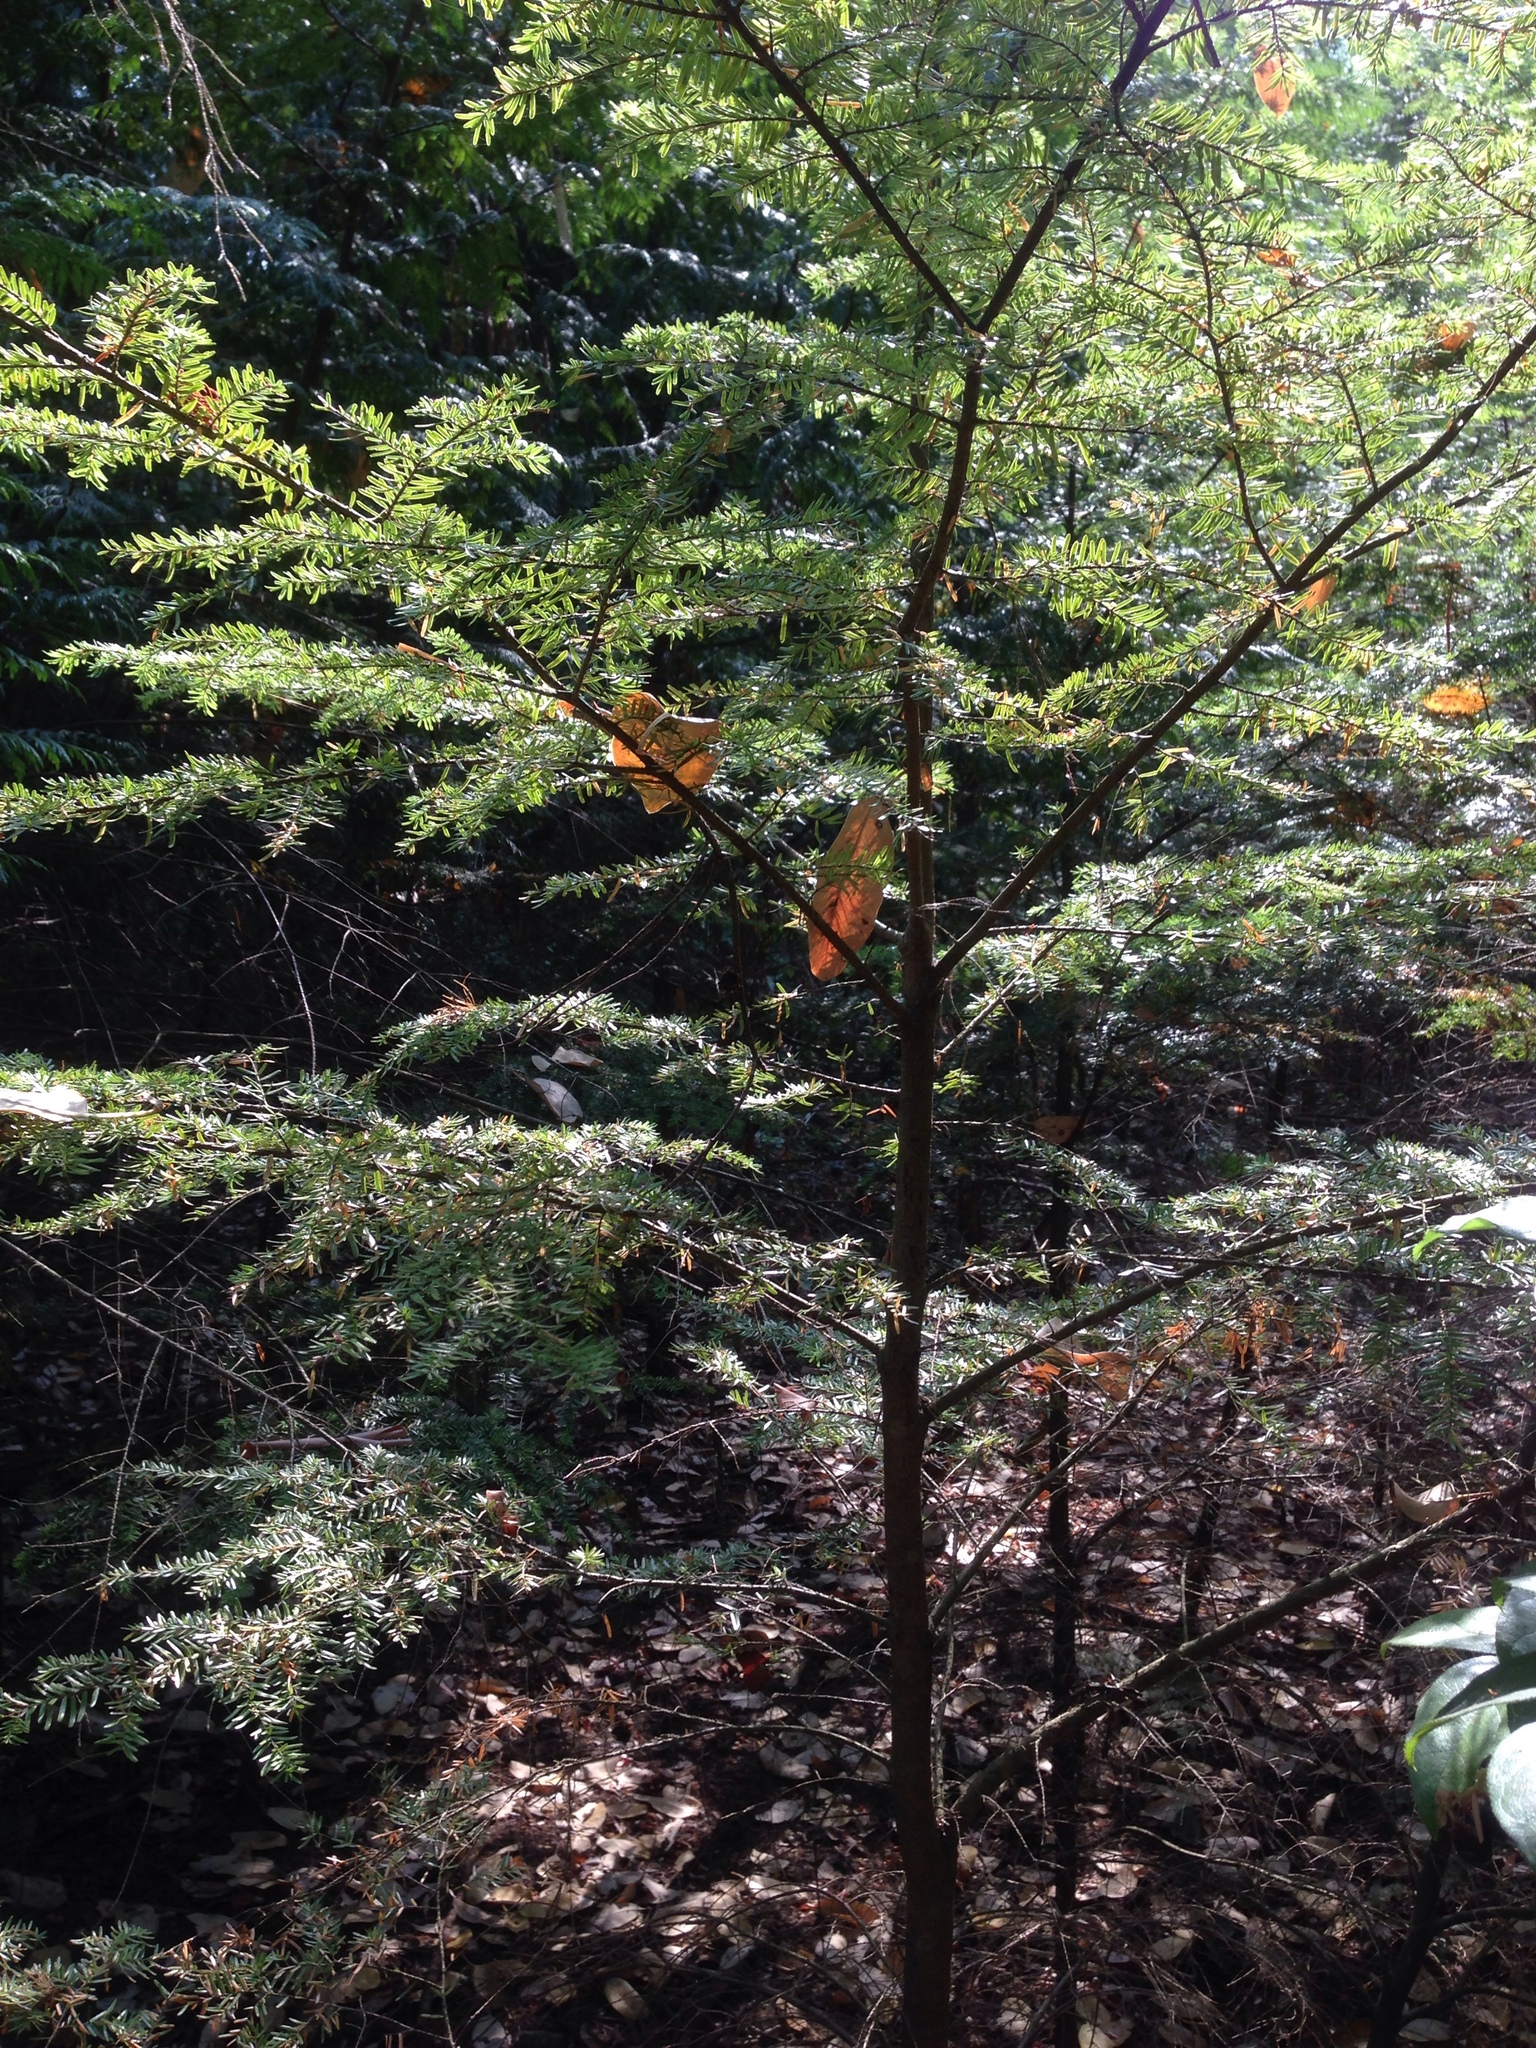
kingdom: Plantae
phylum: Tracheophyta
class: Pinopsida
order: Pinales
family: Pinaceae
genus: Tsuga
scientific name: Tsuga heterophylla
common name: Western hemlock
